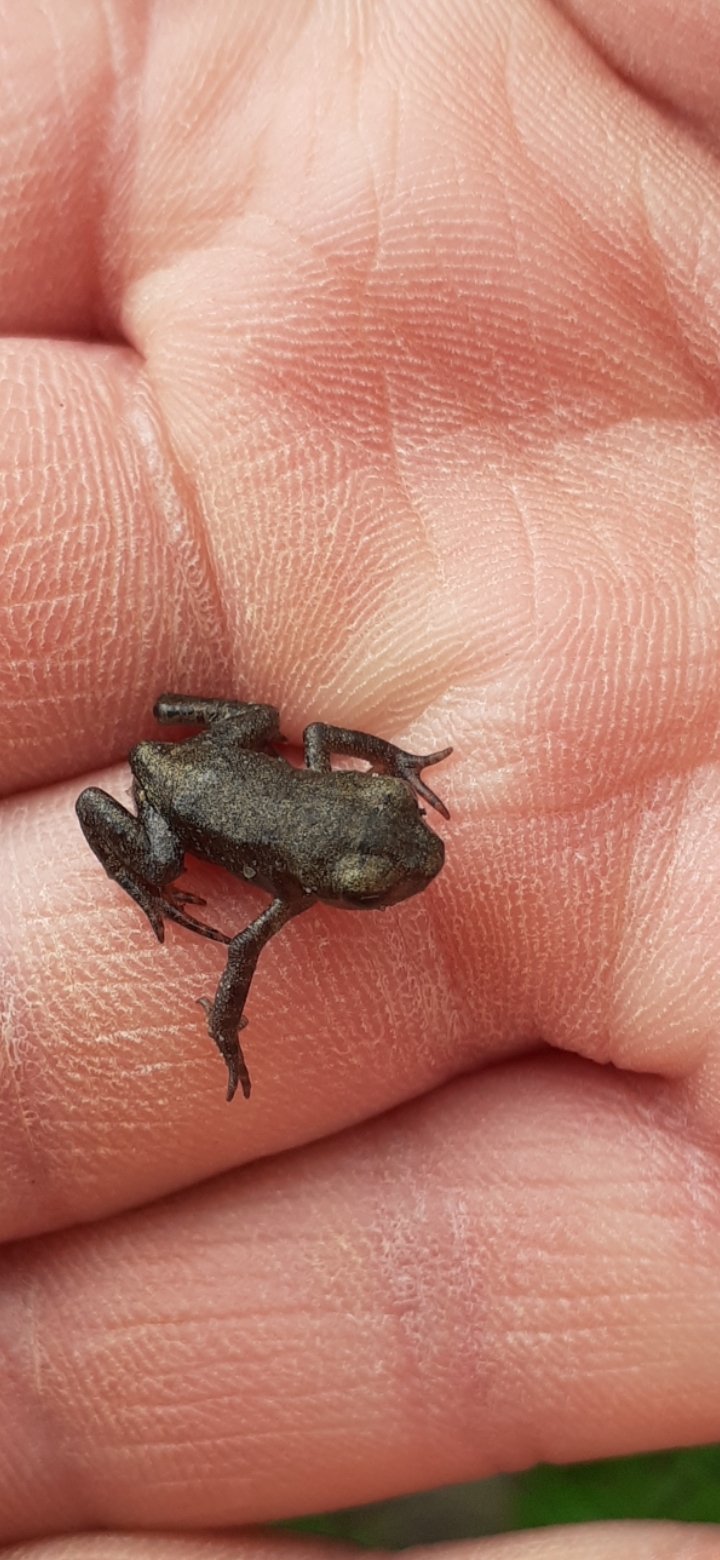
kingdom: Animalia
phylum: Chordata
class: Amphibia
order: Anura
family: Bufonidae
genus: Bufo
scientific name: Bufo bufo
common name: Common toad
